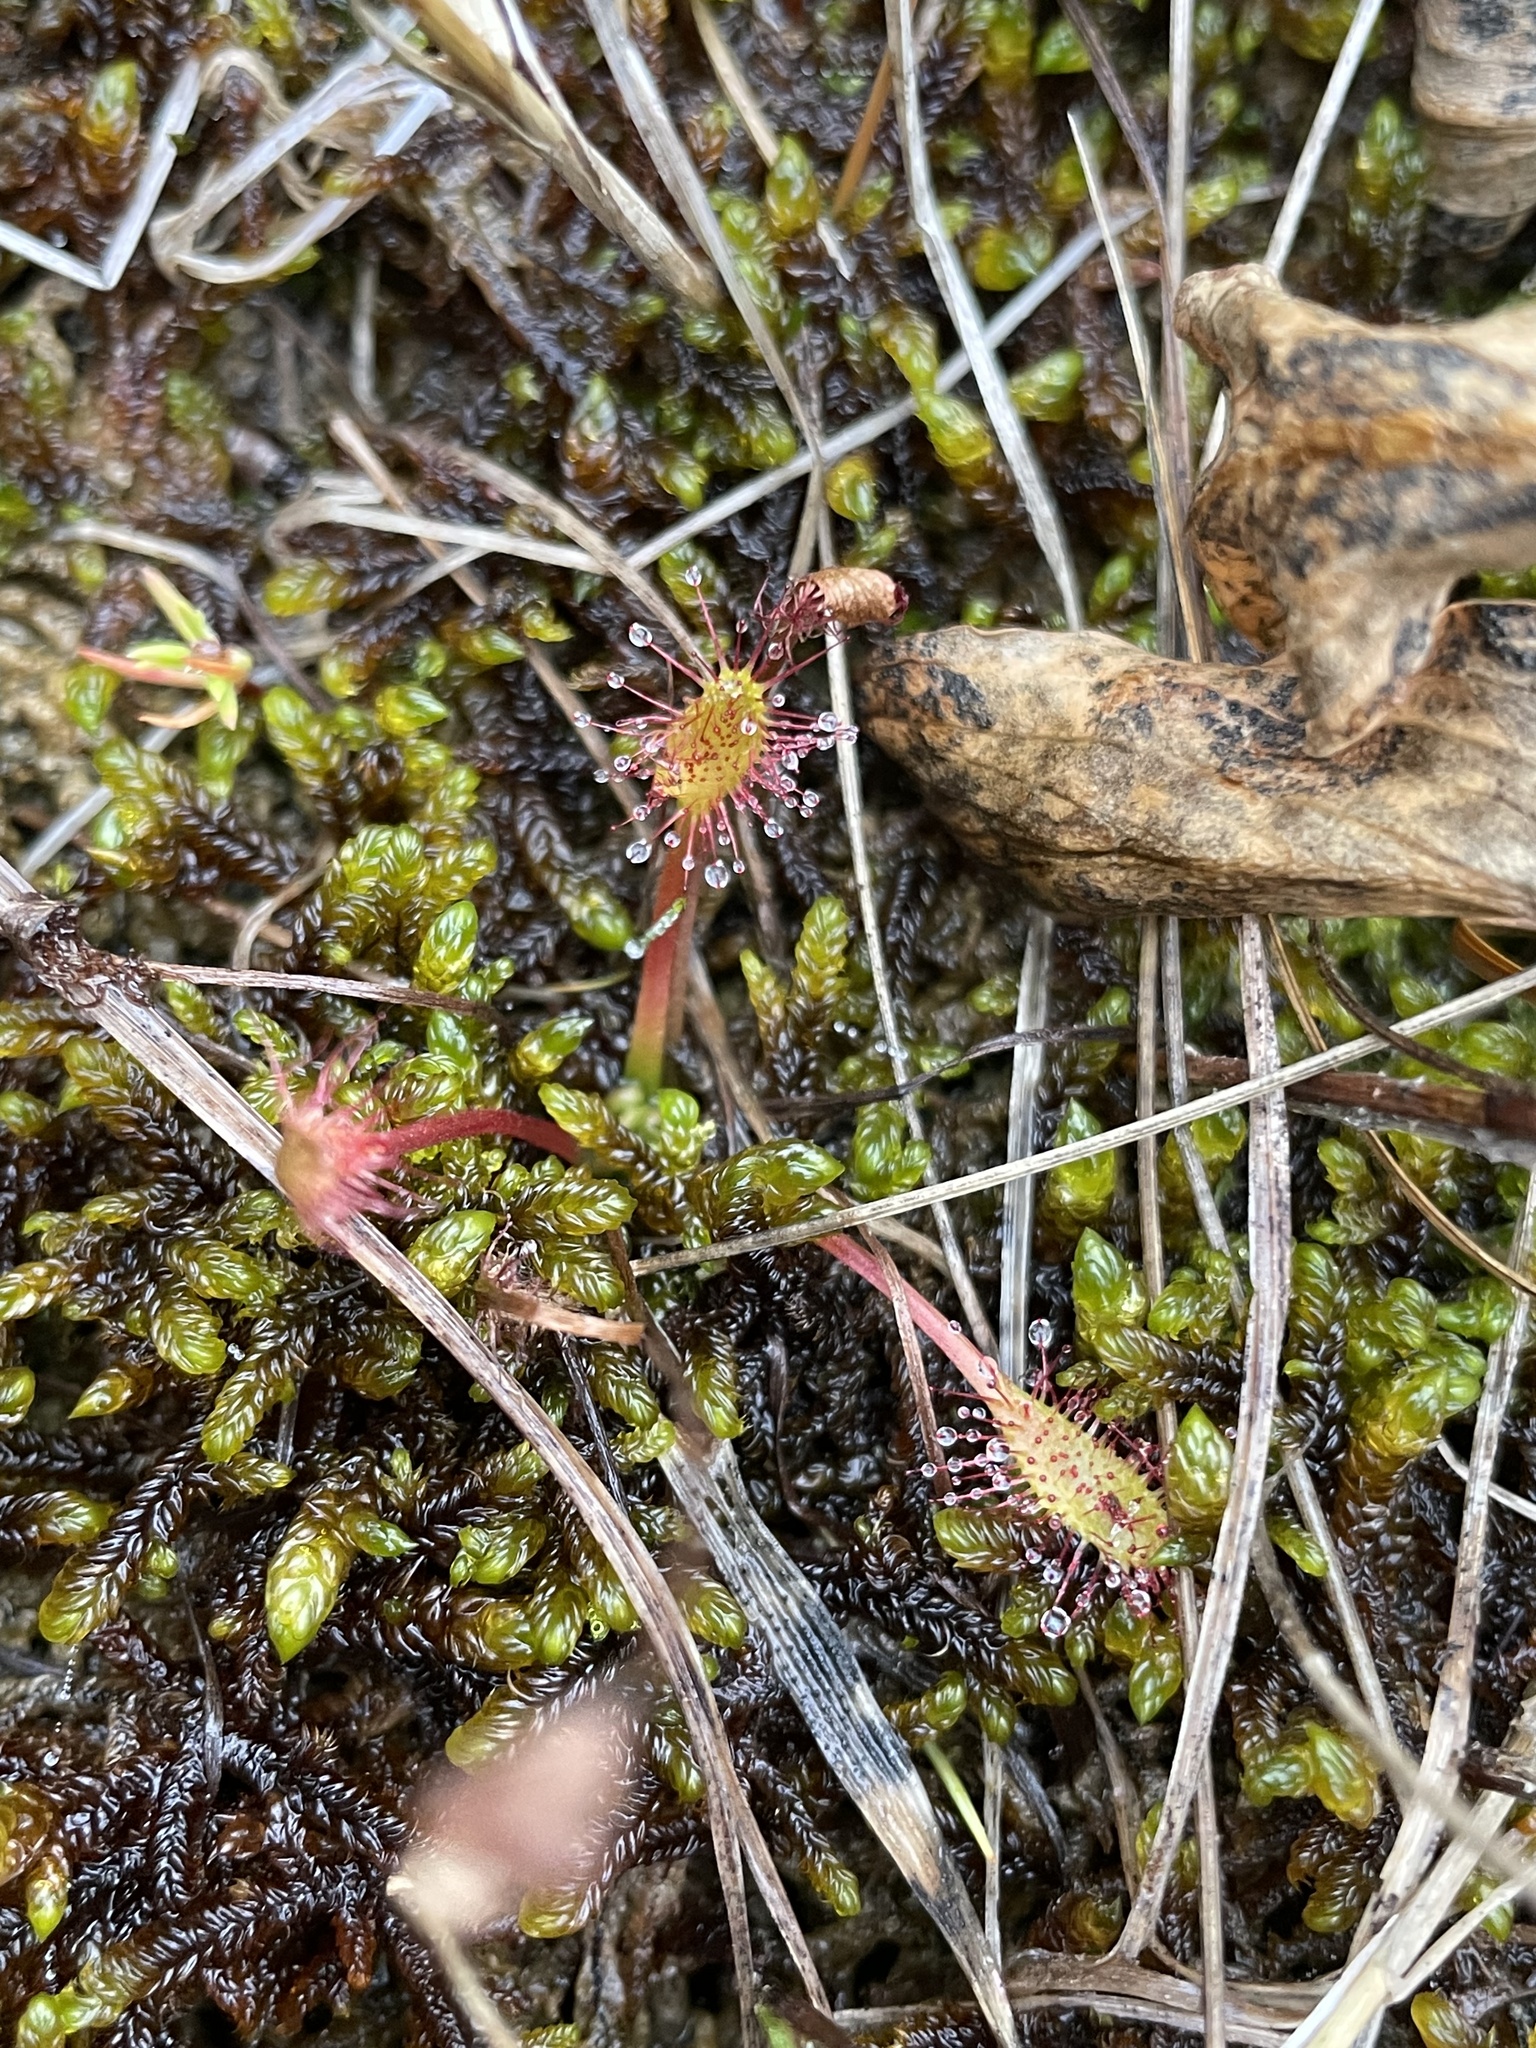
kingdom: Plantae
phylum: Tracheophyta
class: Magnoliopsida
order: Caryophyllales
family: Droseraceae
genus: Drosera
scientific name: Drosera anglica
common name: Great sundew
